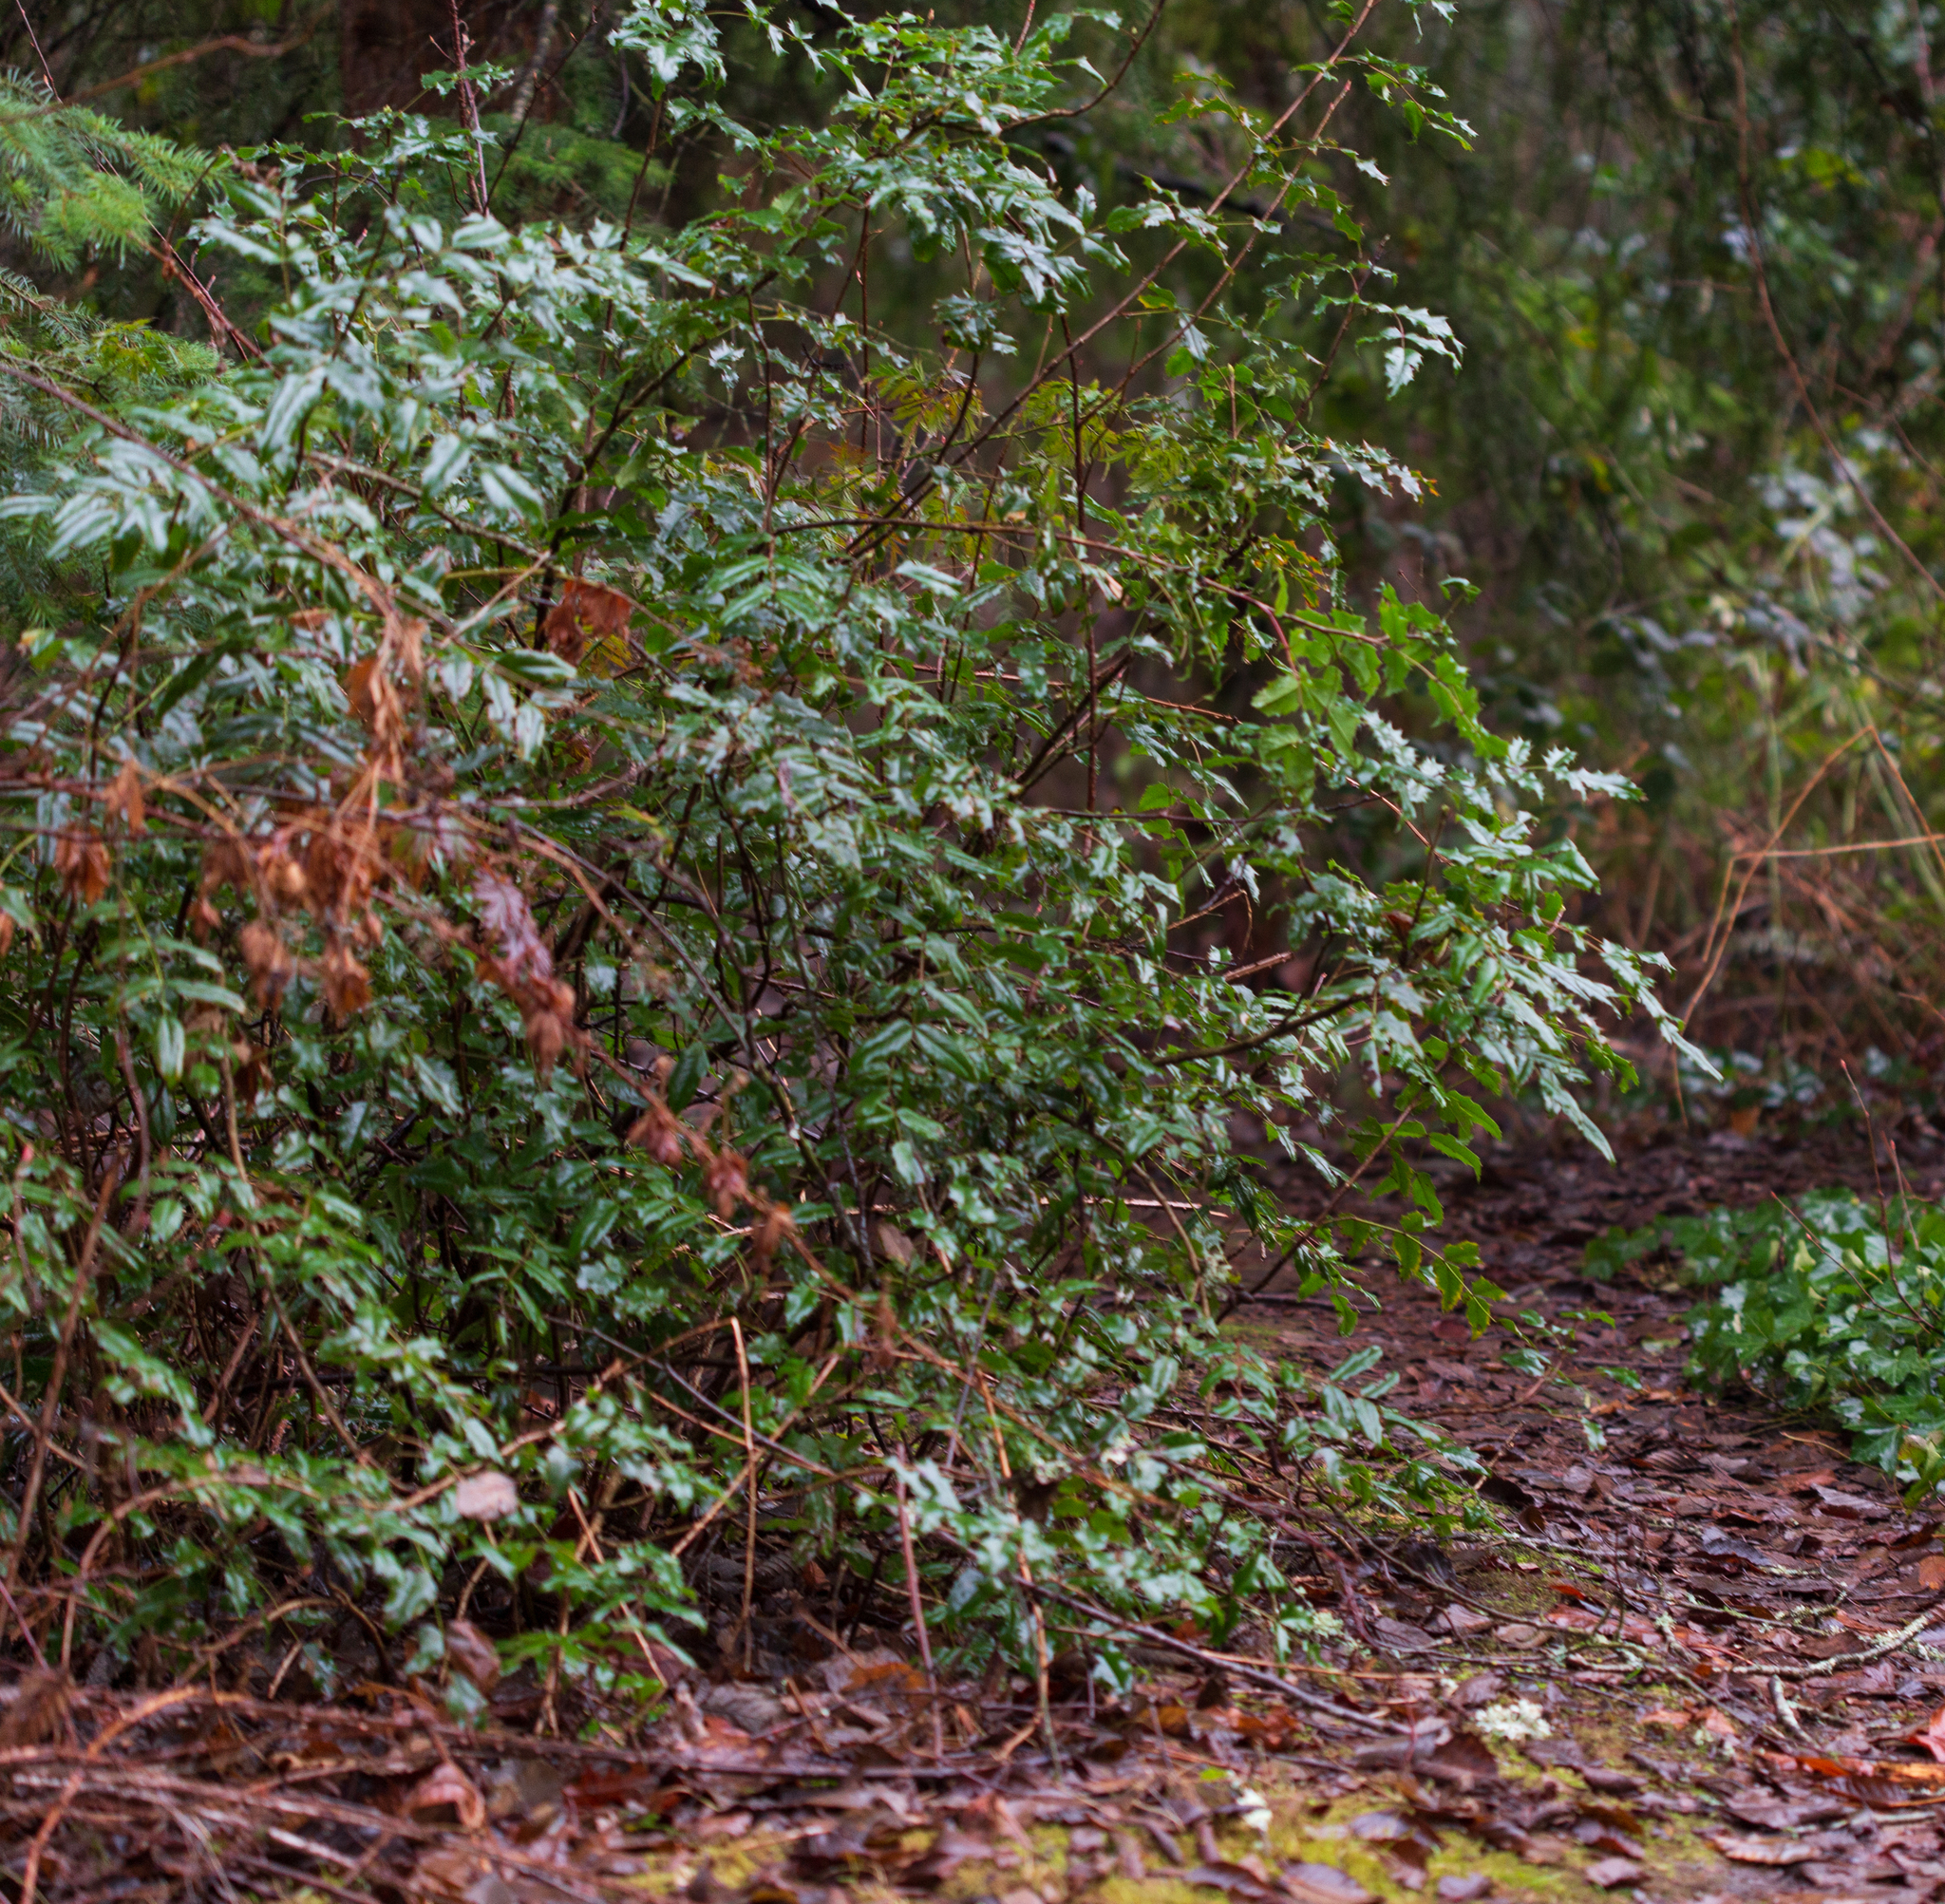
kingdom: Plantae
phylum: Tracheophyta
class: Magnoliopsida
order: Ranunculales
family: Berberidaceae
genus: Mahonia
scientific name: Mahonia aquifolium
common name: Oregon-grape
